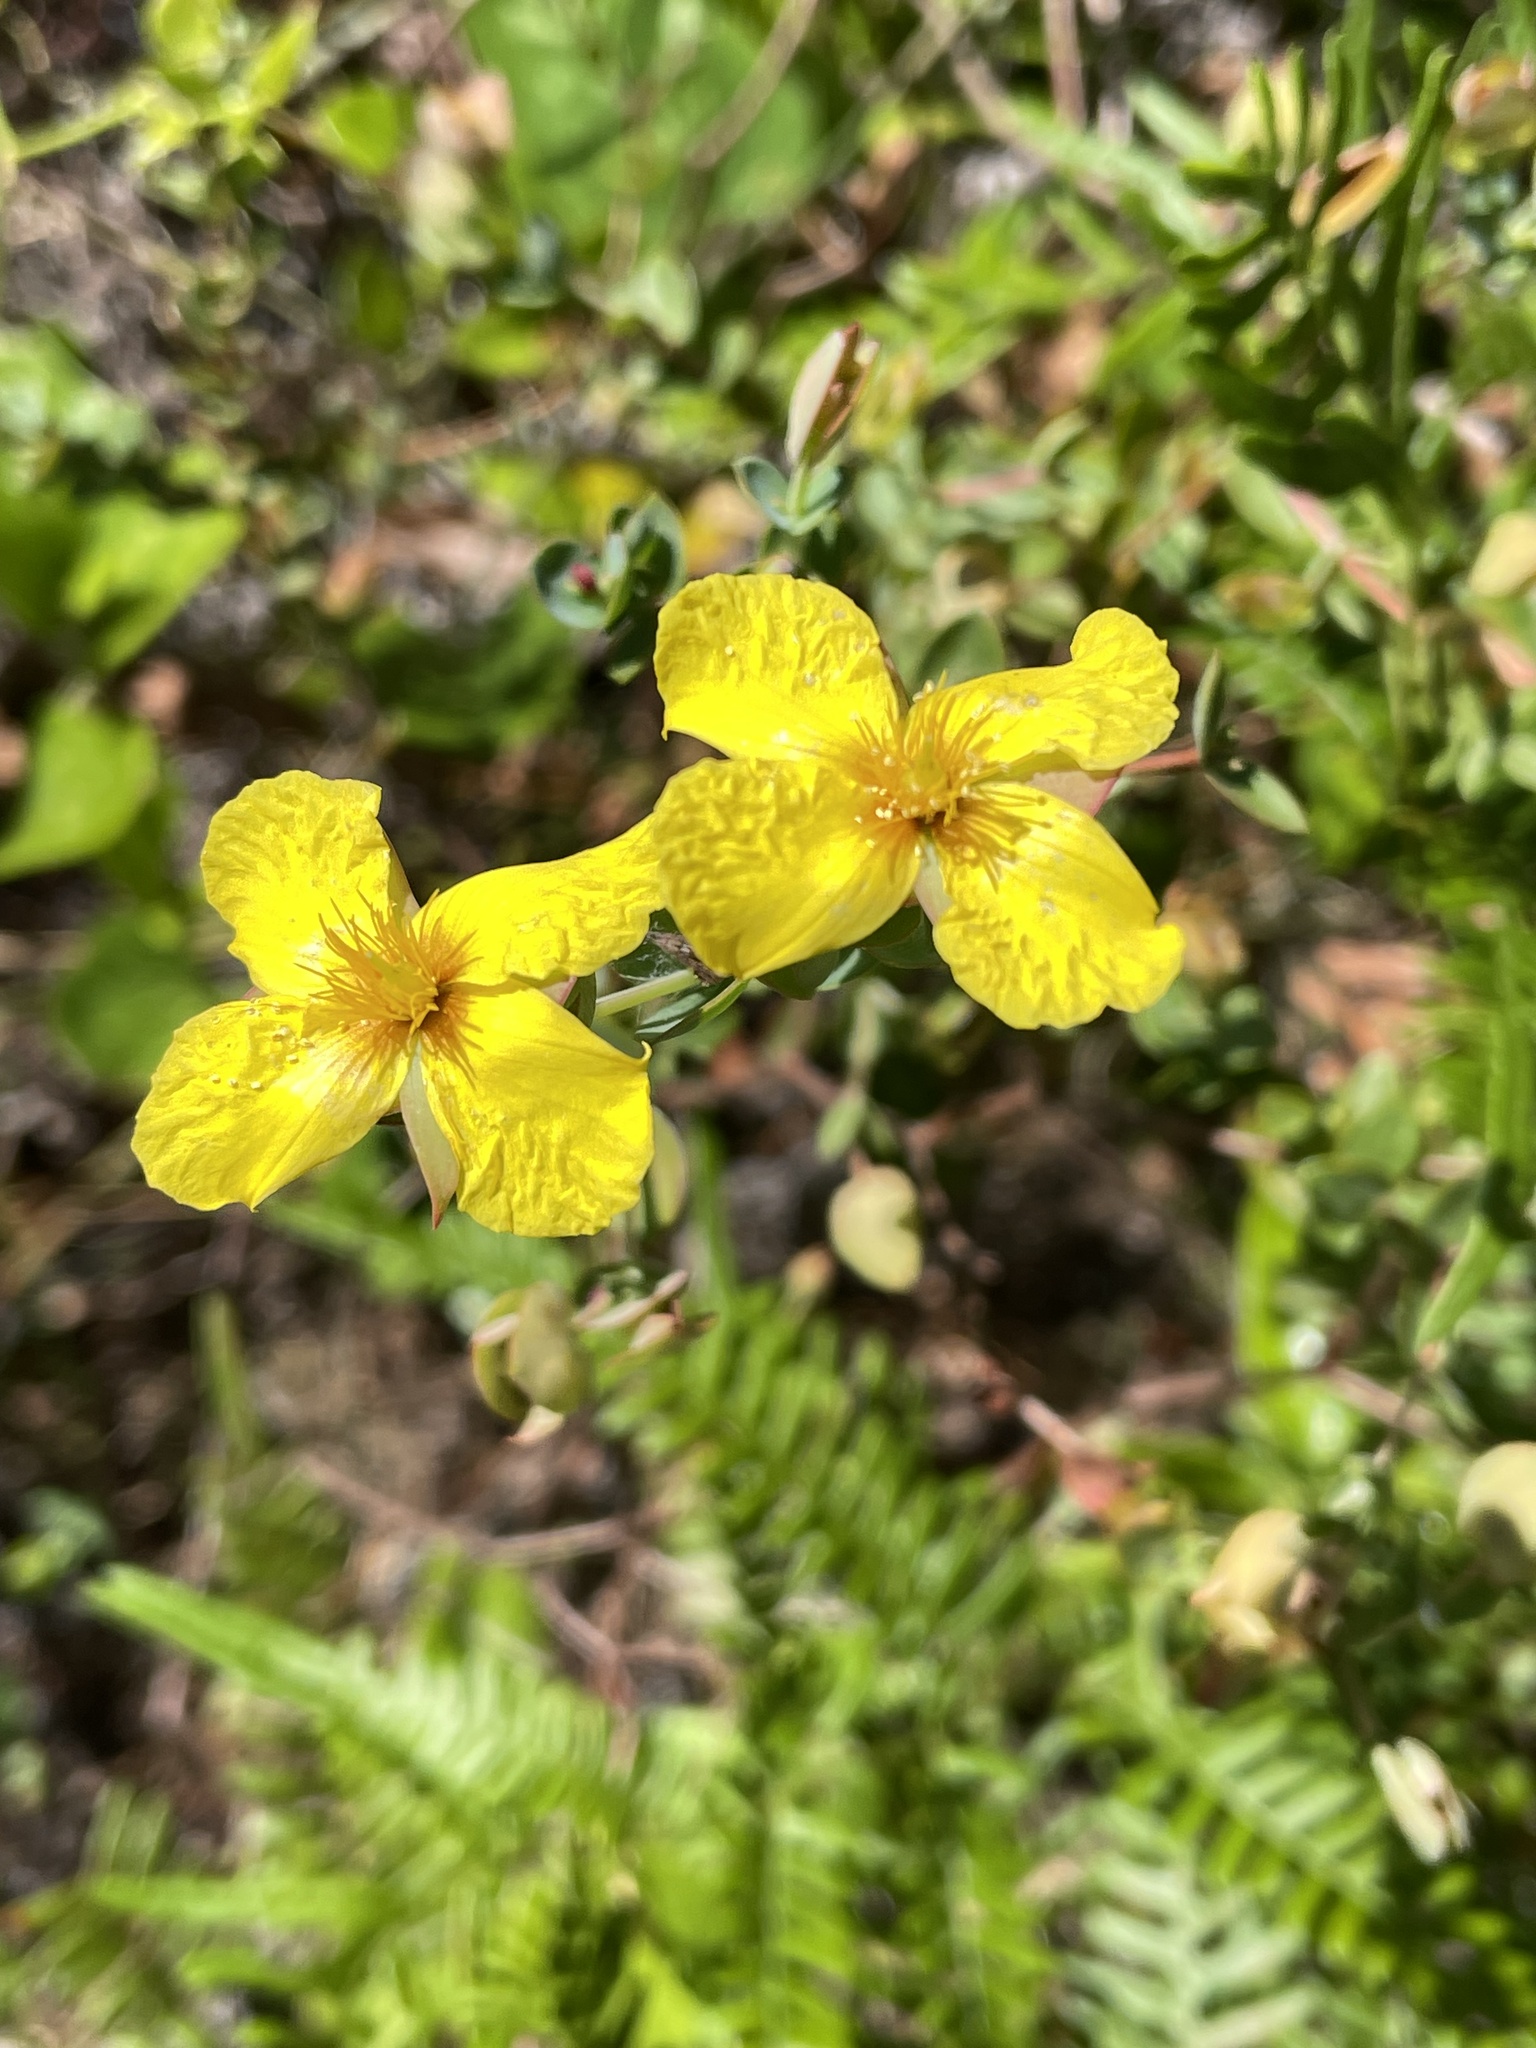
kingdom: Plantae
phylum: Tracheophyta
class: Magnoliopsida
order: Malpighiales
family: Hypericaceae
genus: Hypericum
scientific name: Hypericum tetrapetalum
